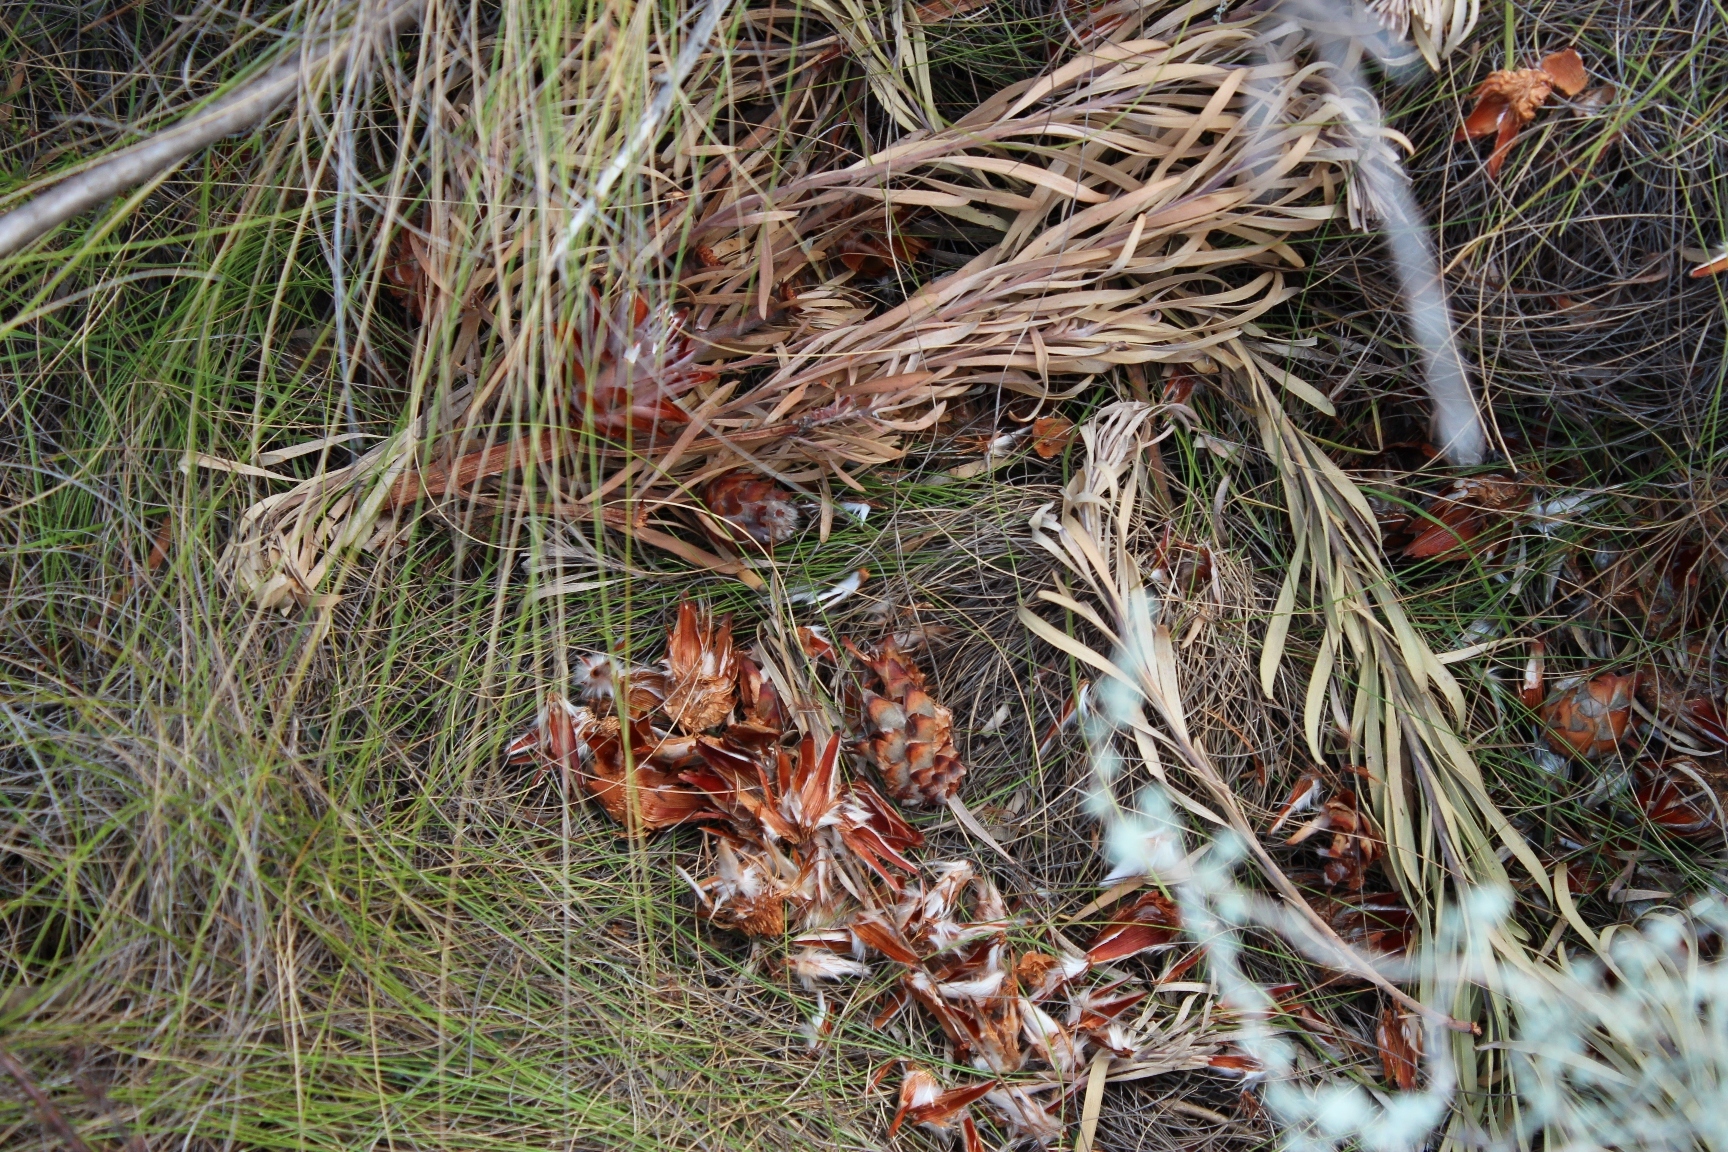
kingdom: Plantae
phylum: Tracheophyta
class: Magnoliopsida
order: Proteales
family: Proteaceae
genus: Leucadendron
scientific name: Leucadendron rubrum
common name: Spinning top
